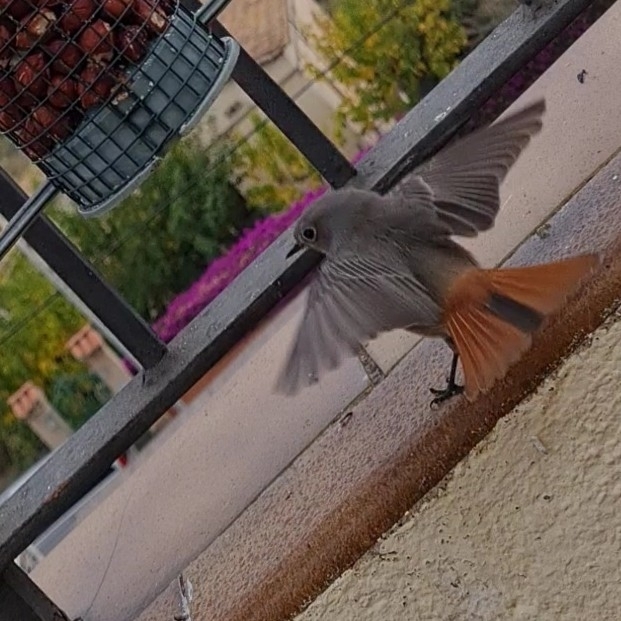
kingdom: Animalia
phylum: Chordata
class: Aves
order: Passeriformes
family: Muscicapidae
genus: Phoenicurus
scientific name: Phoenicurus ochruros
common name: Black redstart
